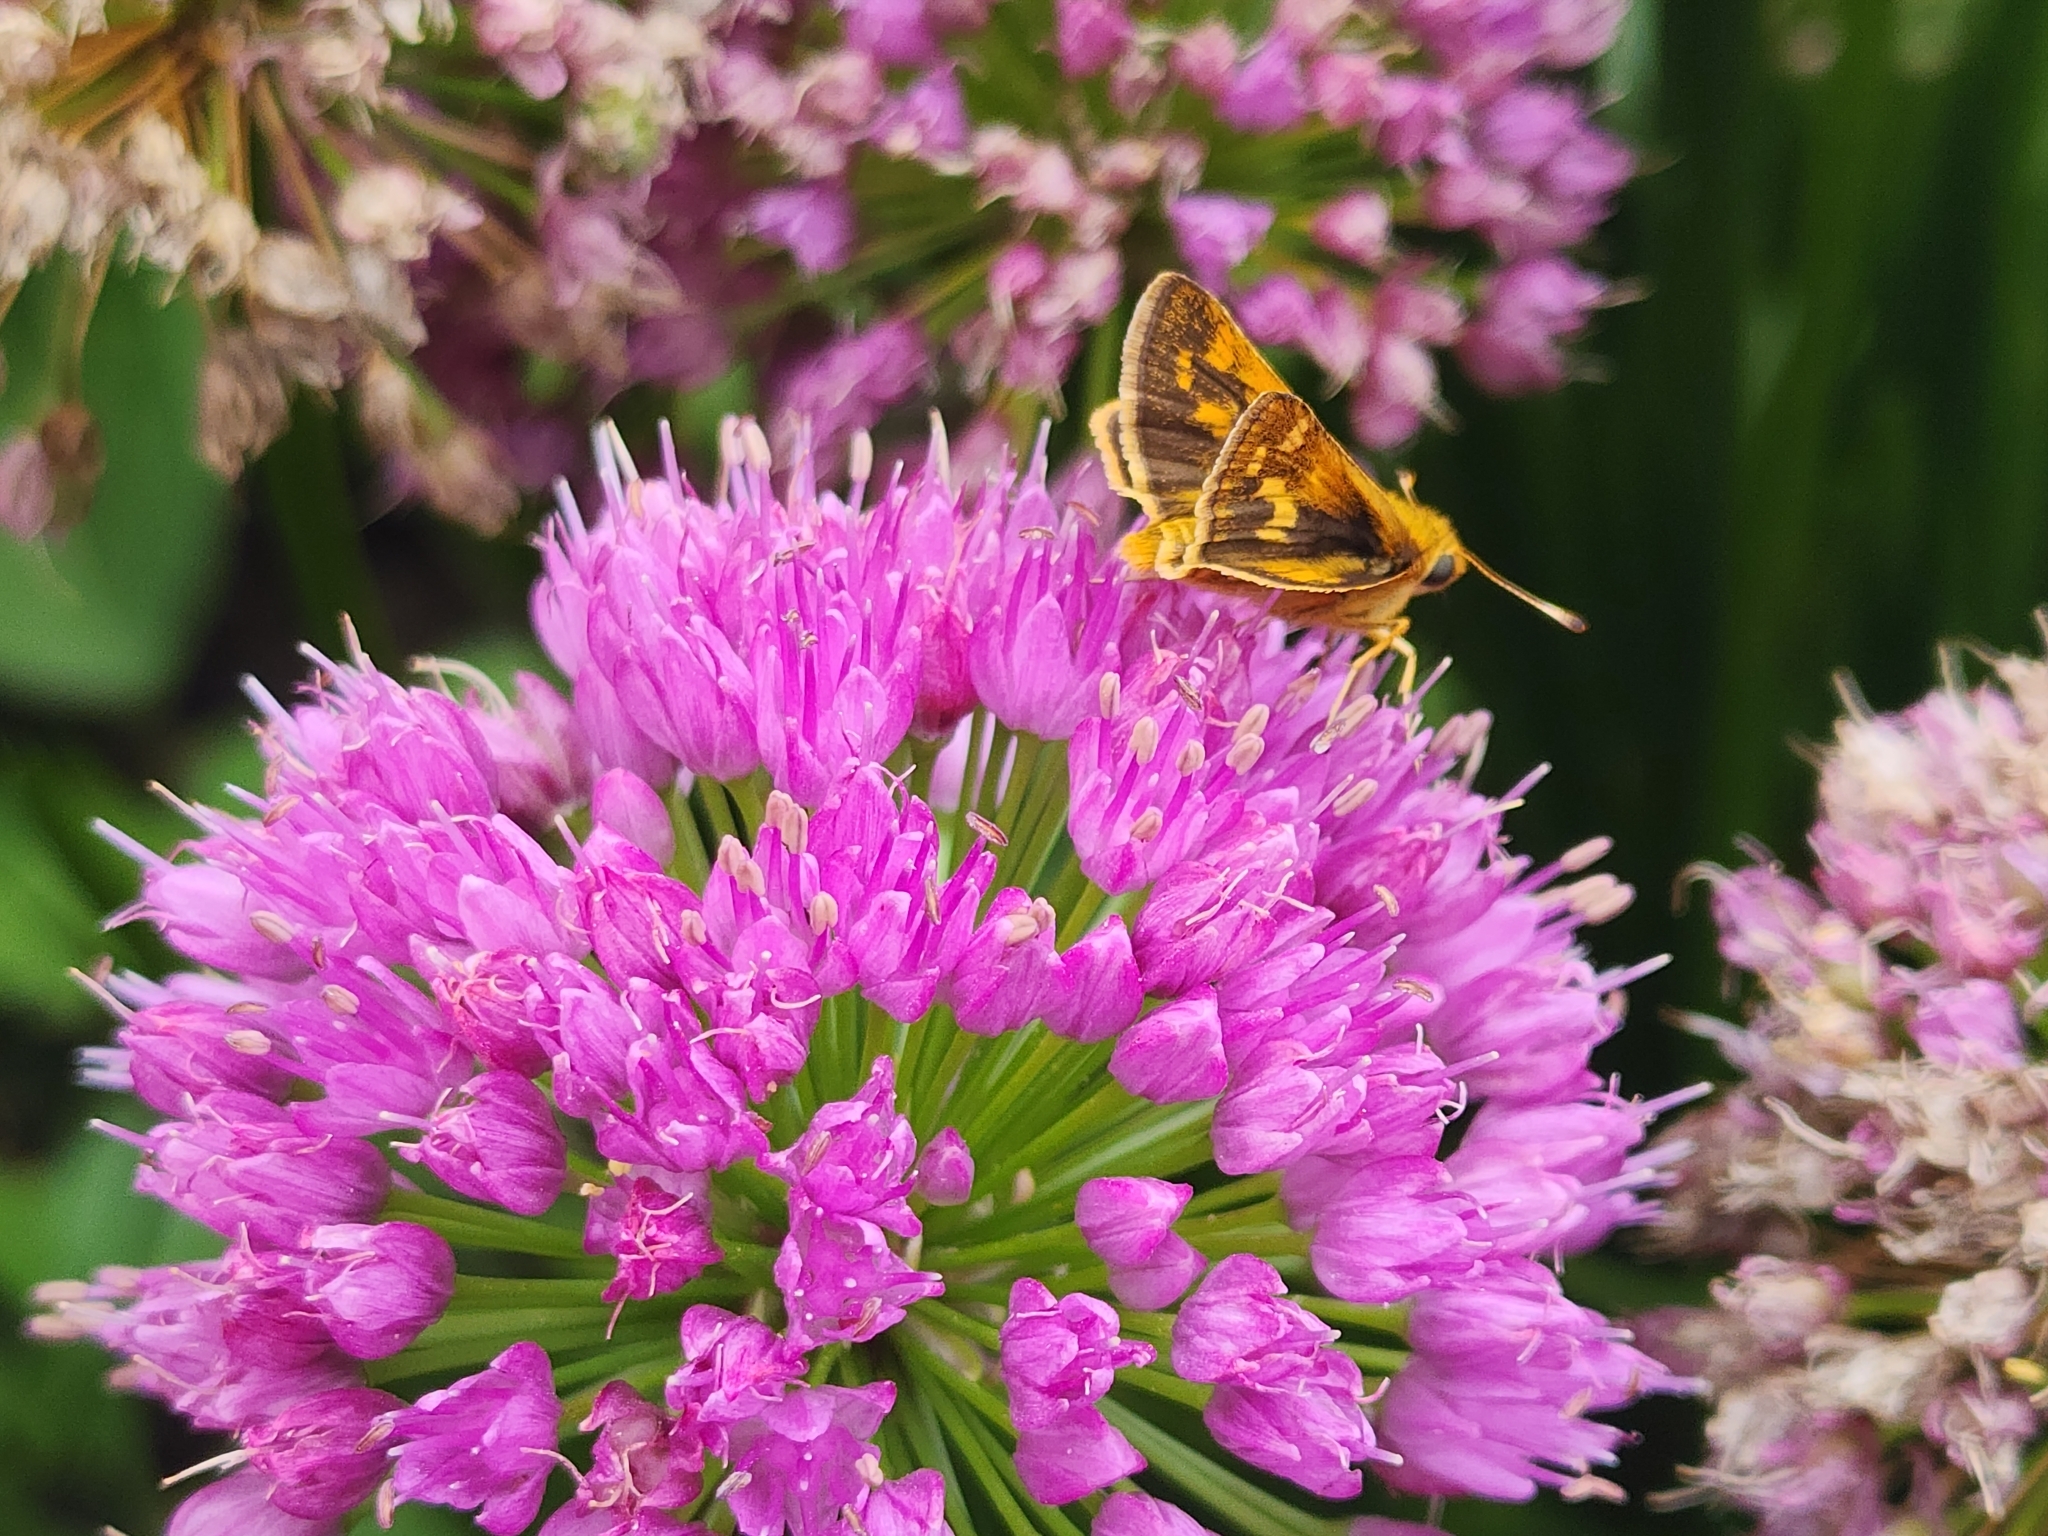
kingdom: Animalia
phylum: Arthropoda
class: Insecta
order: Lepidoptera
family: Hesperiidae
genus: Polites
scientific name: Polites coras
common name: Peck's skipper
